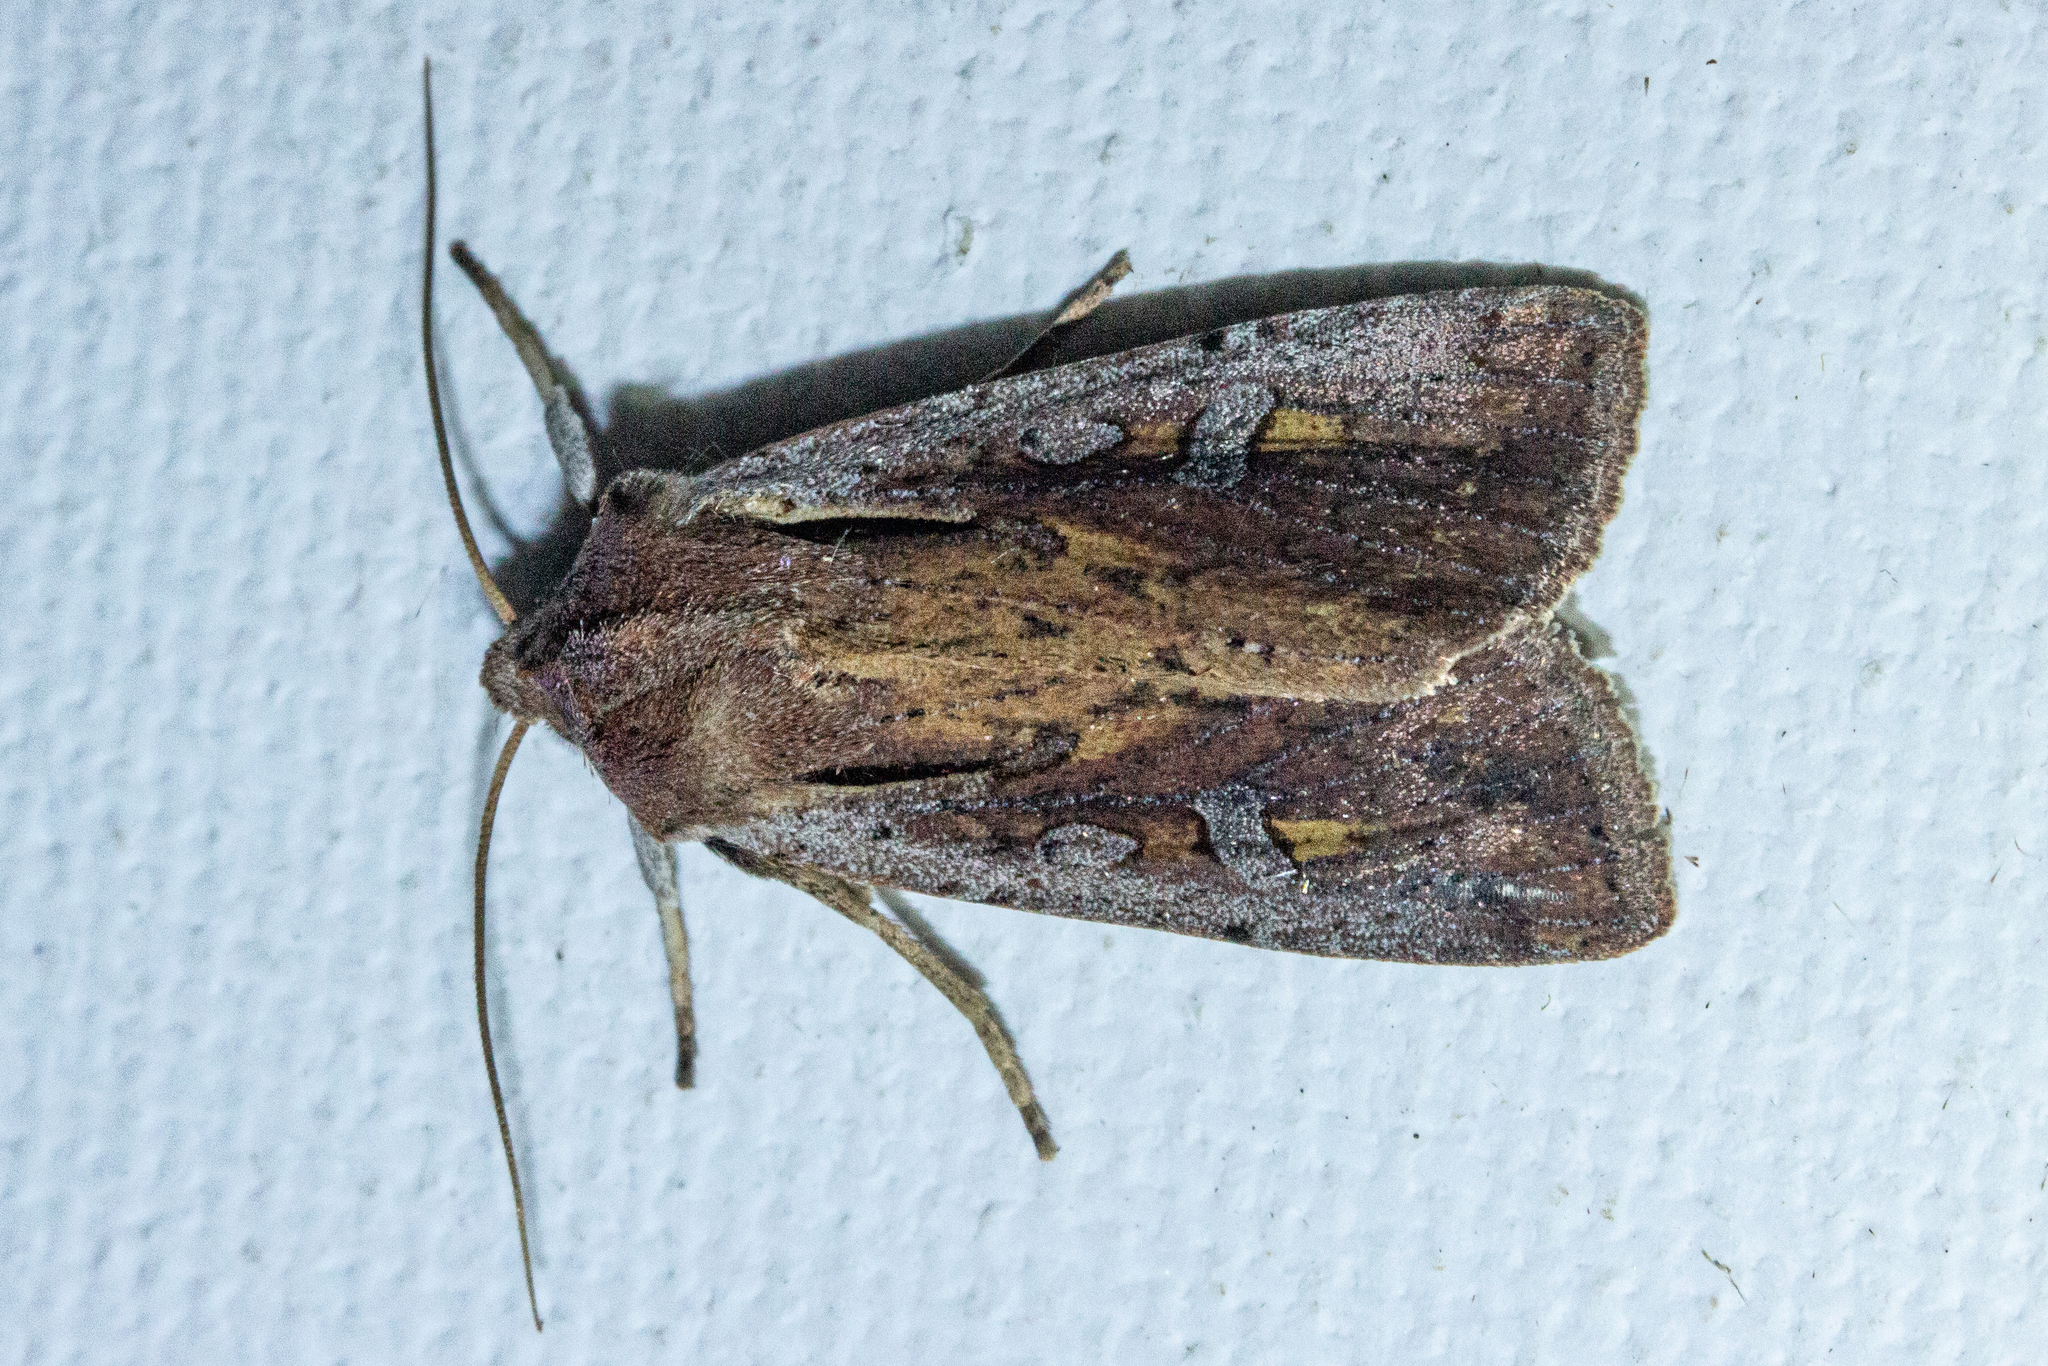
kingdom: Animalia
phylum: Arthropoda
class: Insecta
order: Lepidoptera
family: Noctuidae
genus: Ichneutica
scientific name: Ichneutica atristriga
